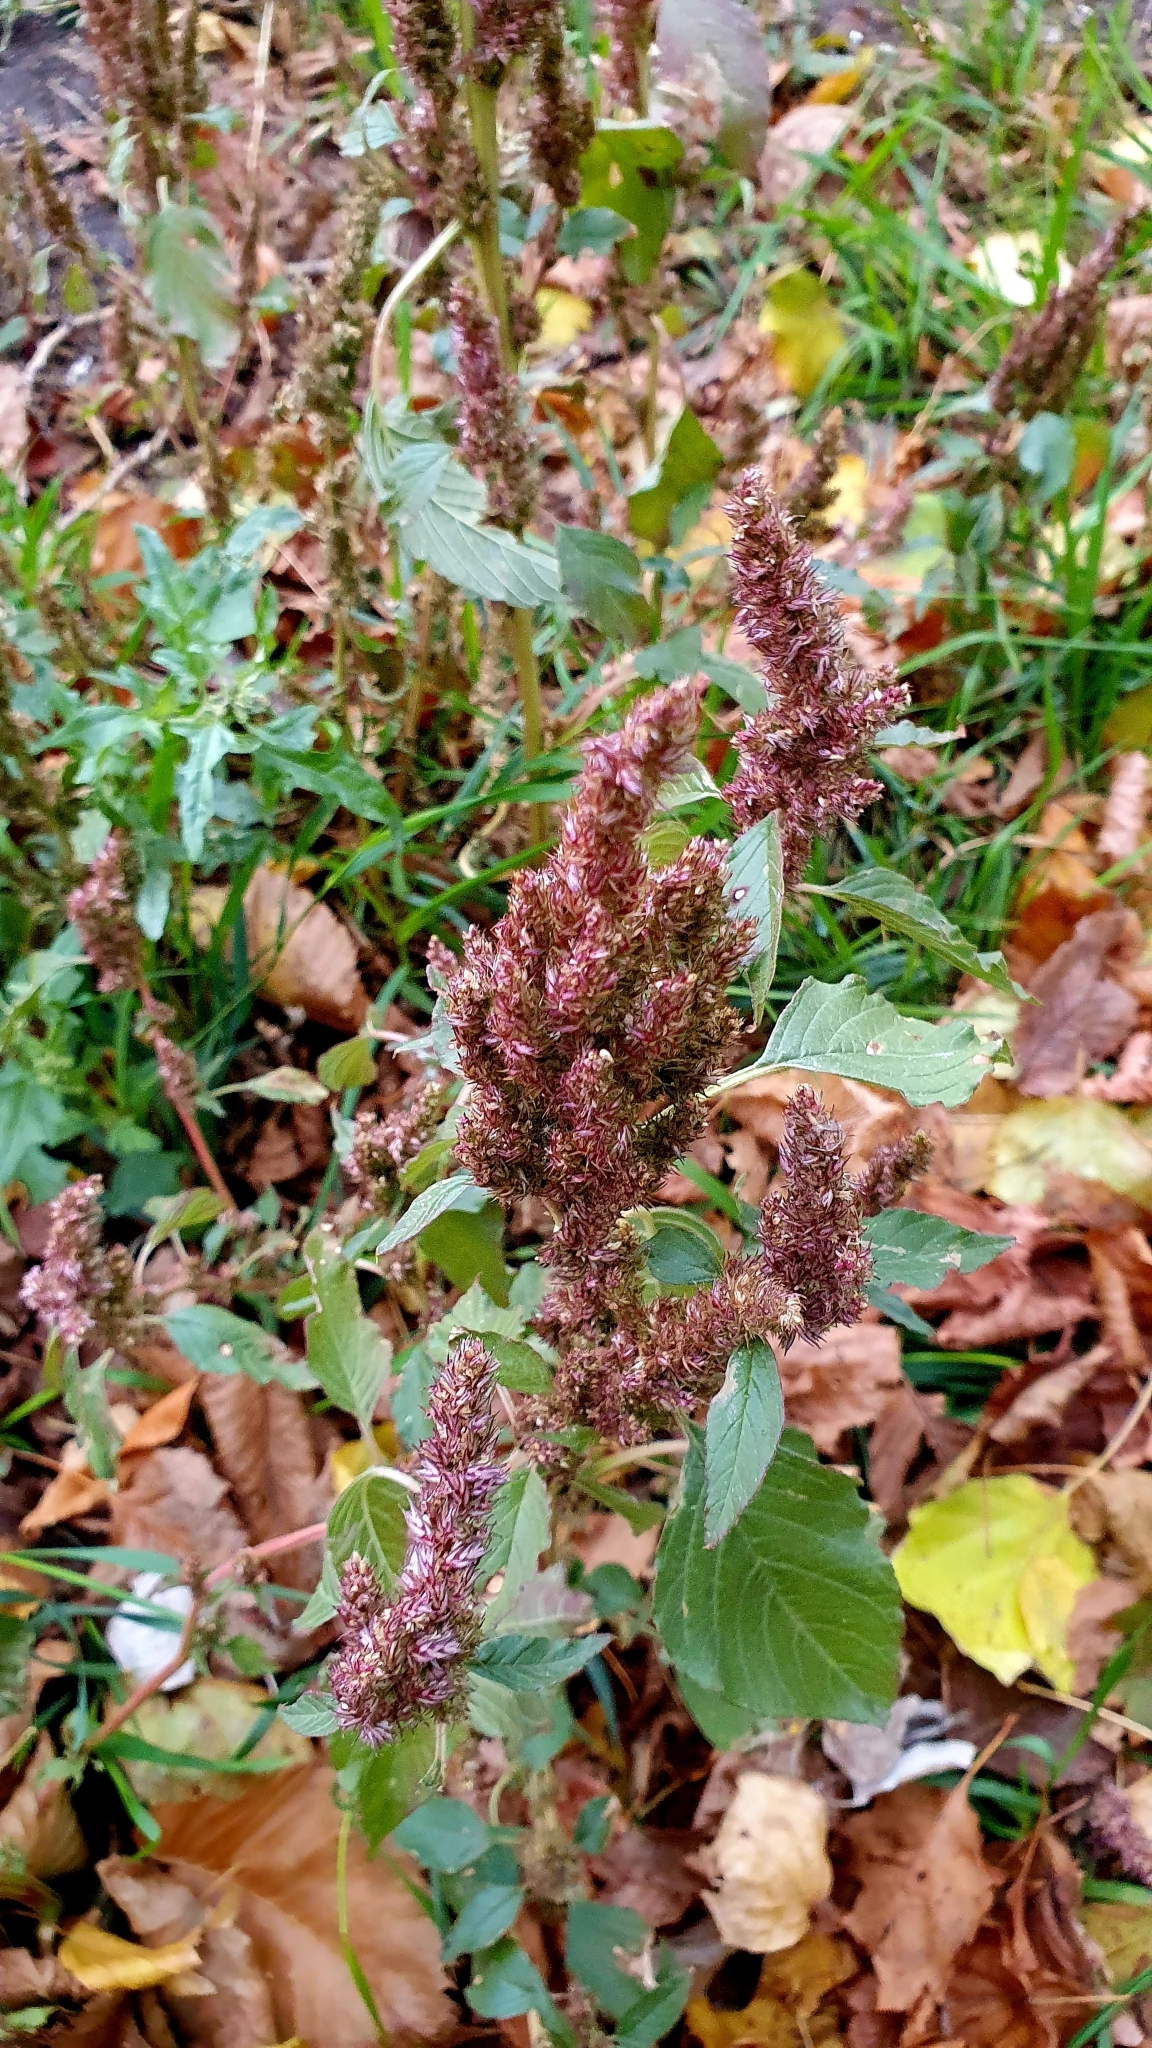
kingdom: Plantae
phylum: Tracheophyta
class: Magnoliopsida
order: Caryophyllales
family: Amaranthaceae
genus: Amaranthus
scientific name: Amaranthus retroflexus
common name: Redroot amaranth
